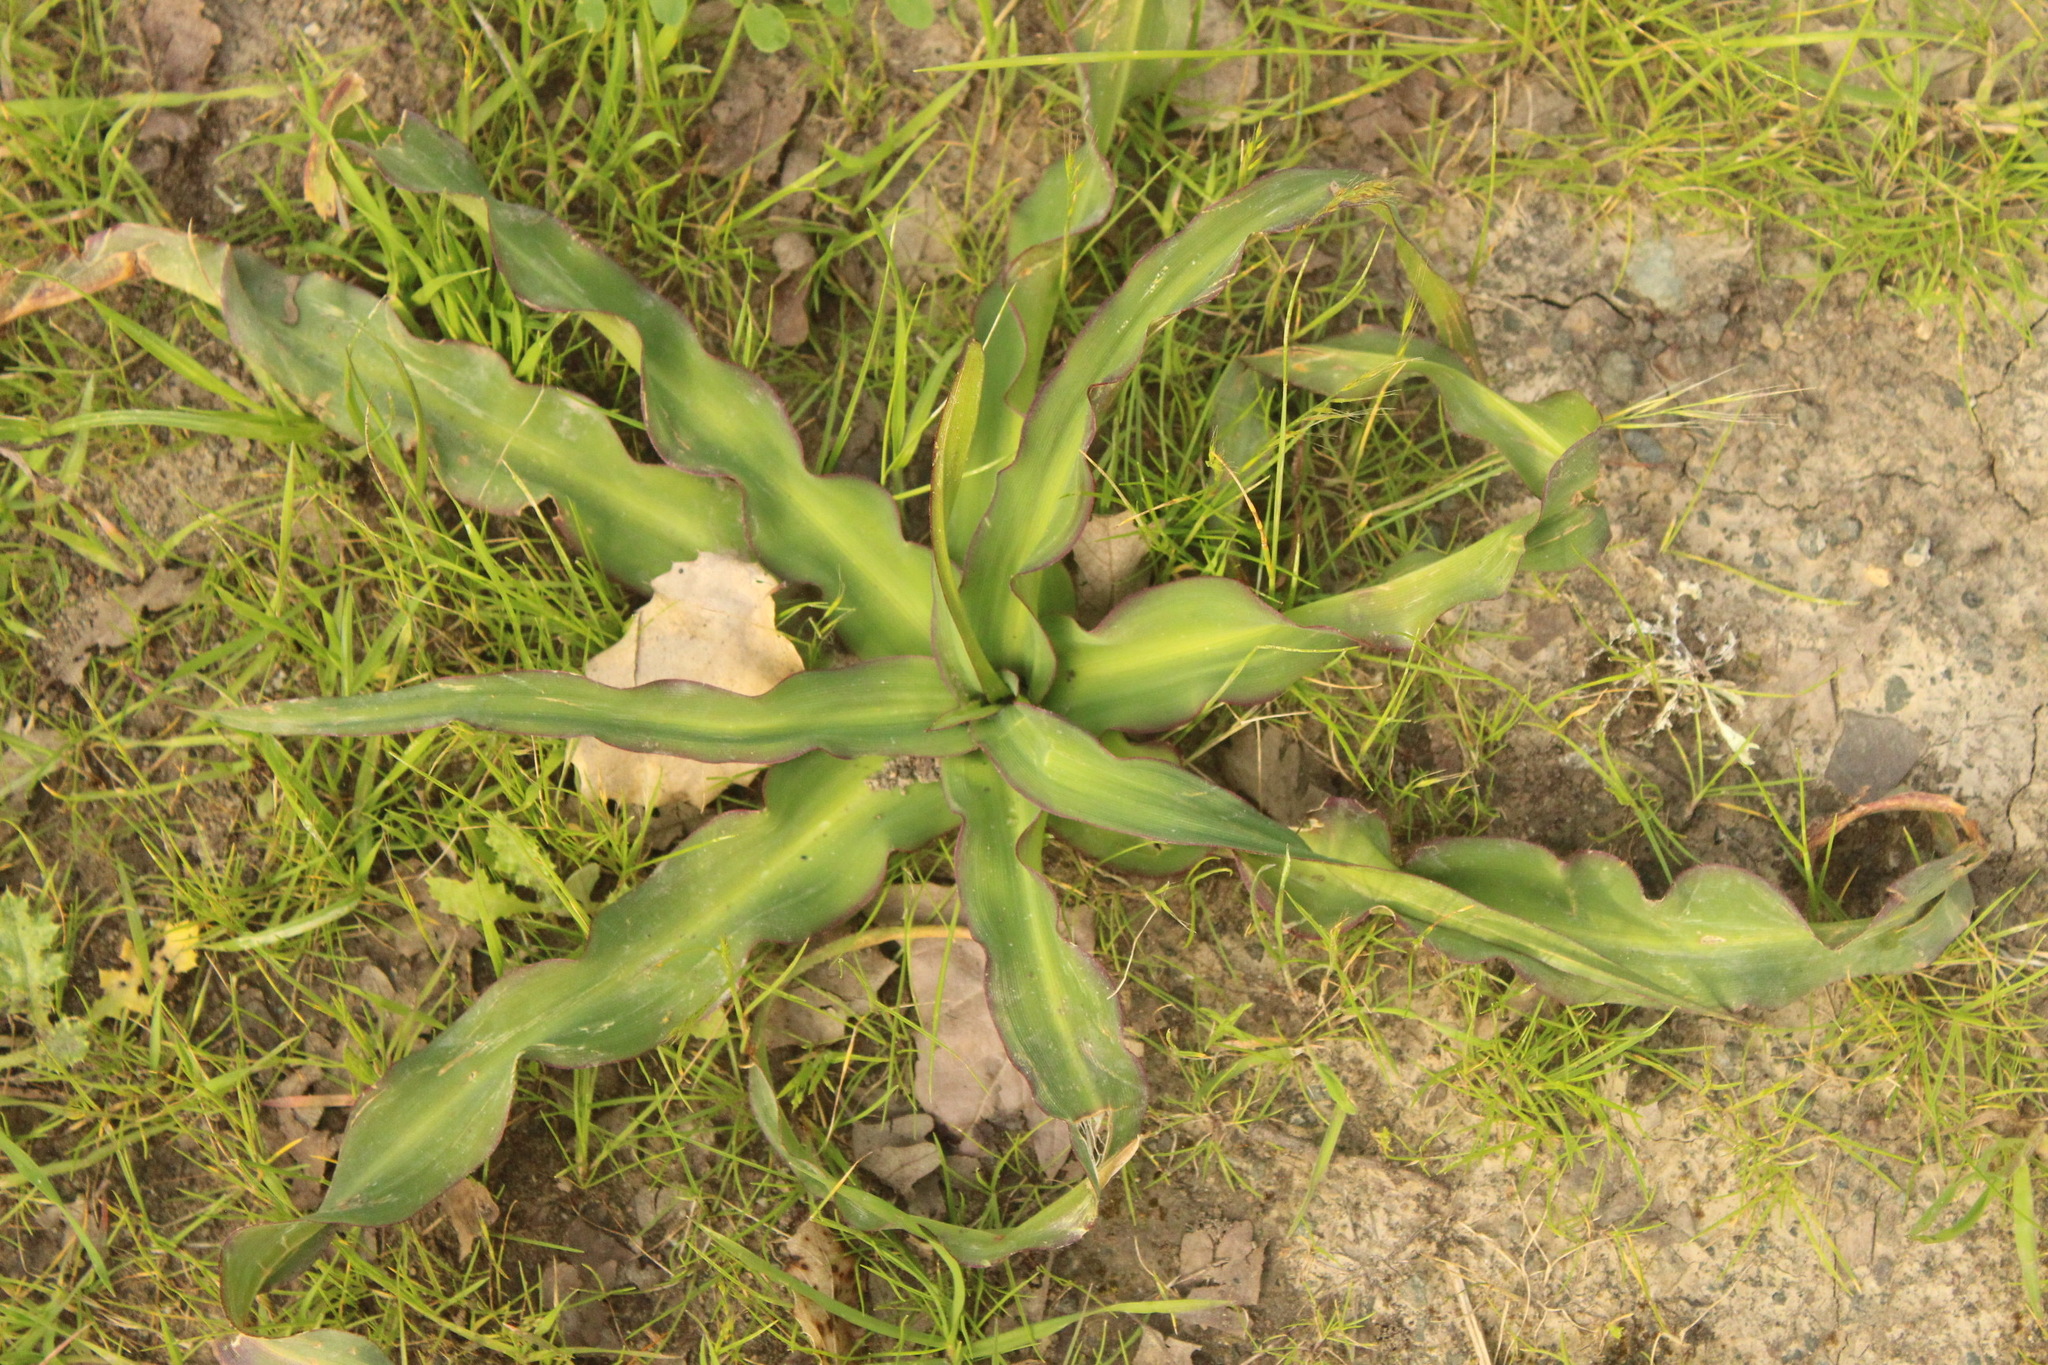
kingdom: Plantae
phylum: Tracheophyta
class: Liliopsida
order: Asparagales
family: Asparagaceae
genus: Chlorogalum
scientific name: Chlorogalum pomeridianum
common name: Amole
